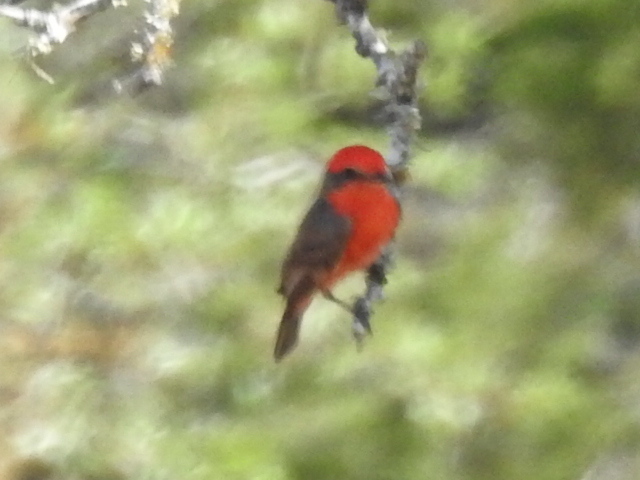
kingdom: Animalia
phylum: Chordata
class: Aves
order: Passeriformes
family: Tyrannidae
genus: Pyrocephalus
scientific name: Pyrocephalus rubinus
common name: Vermilion flycatcher
